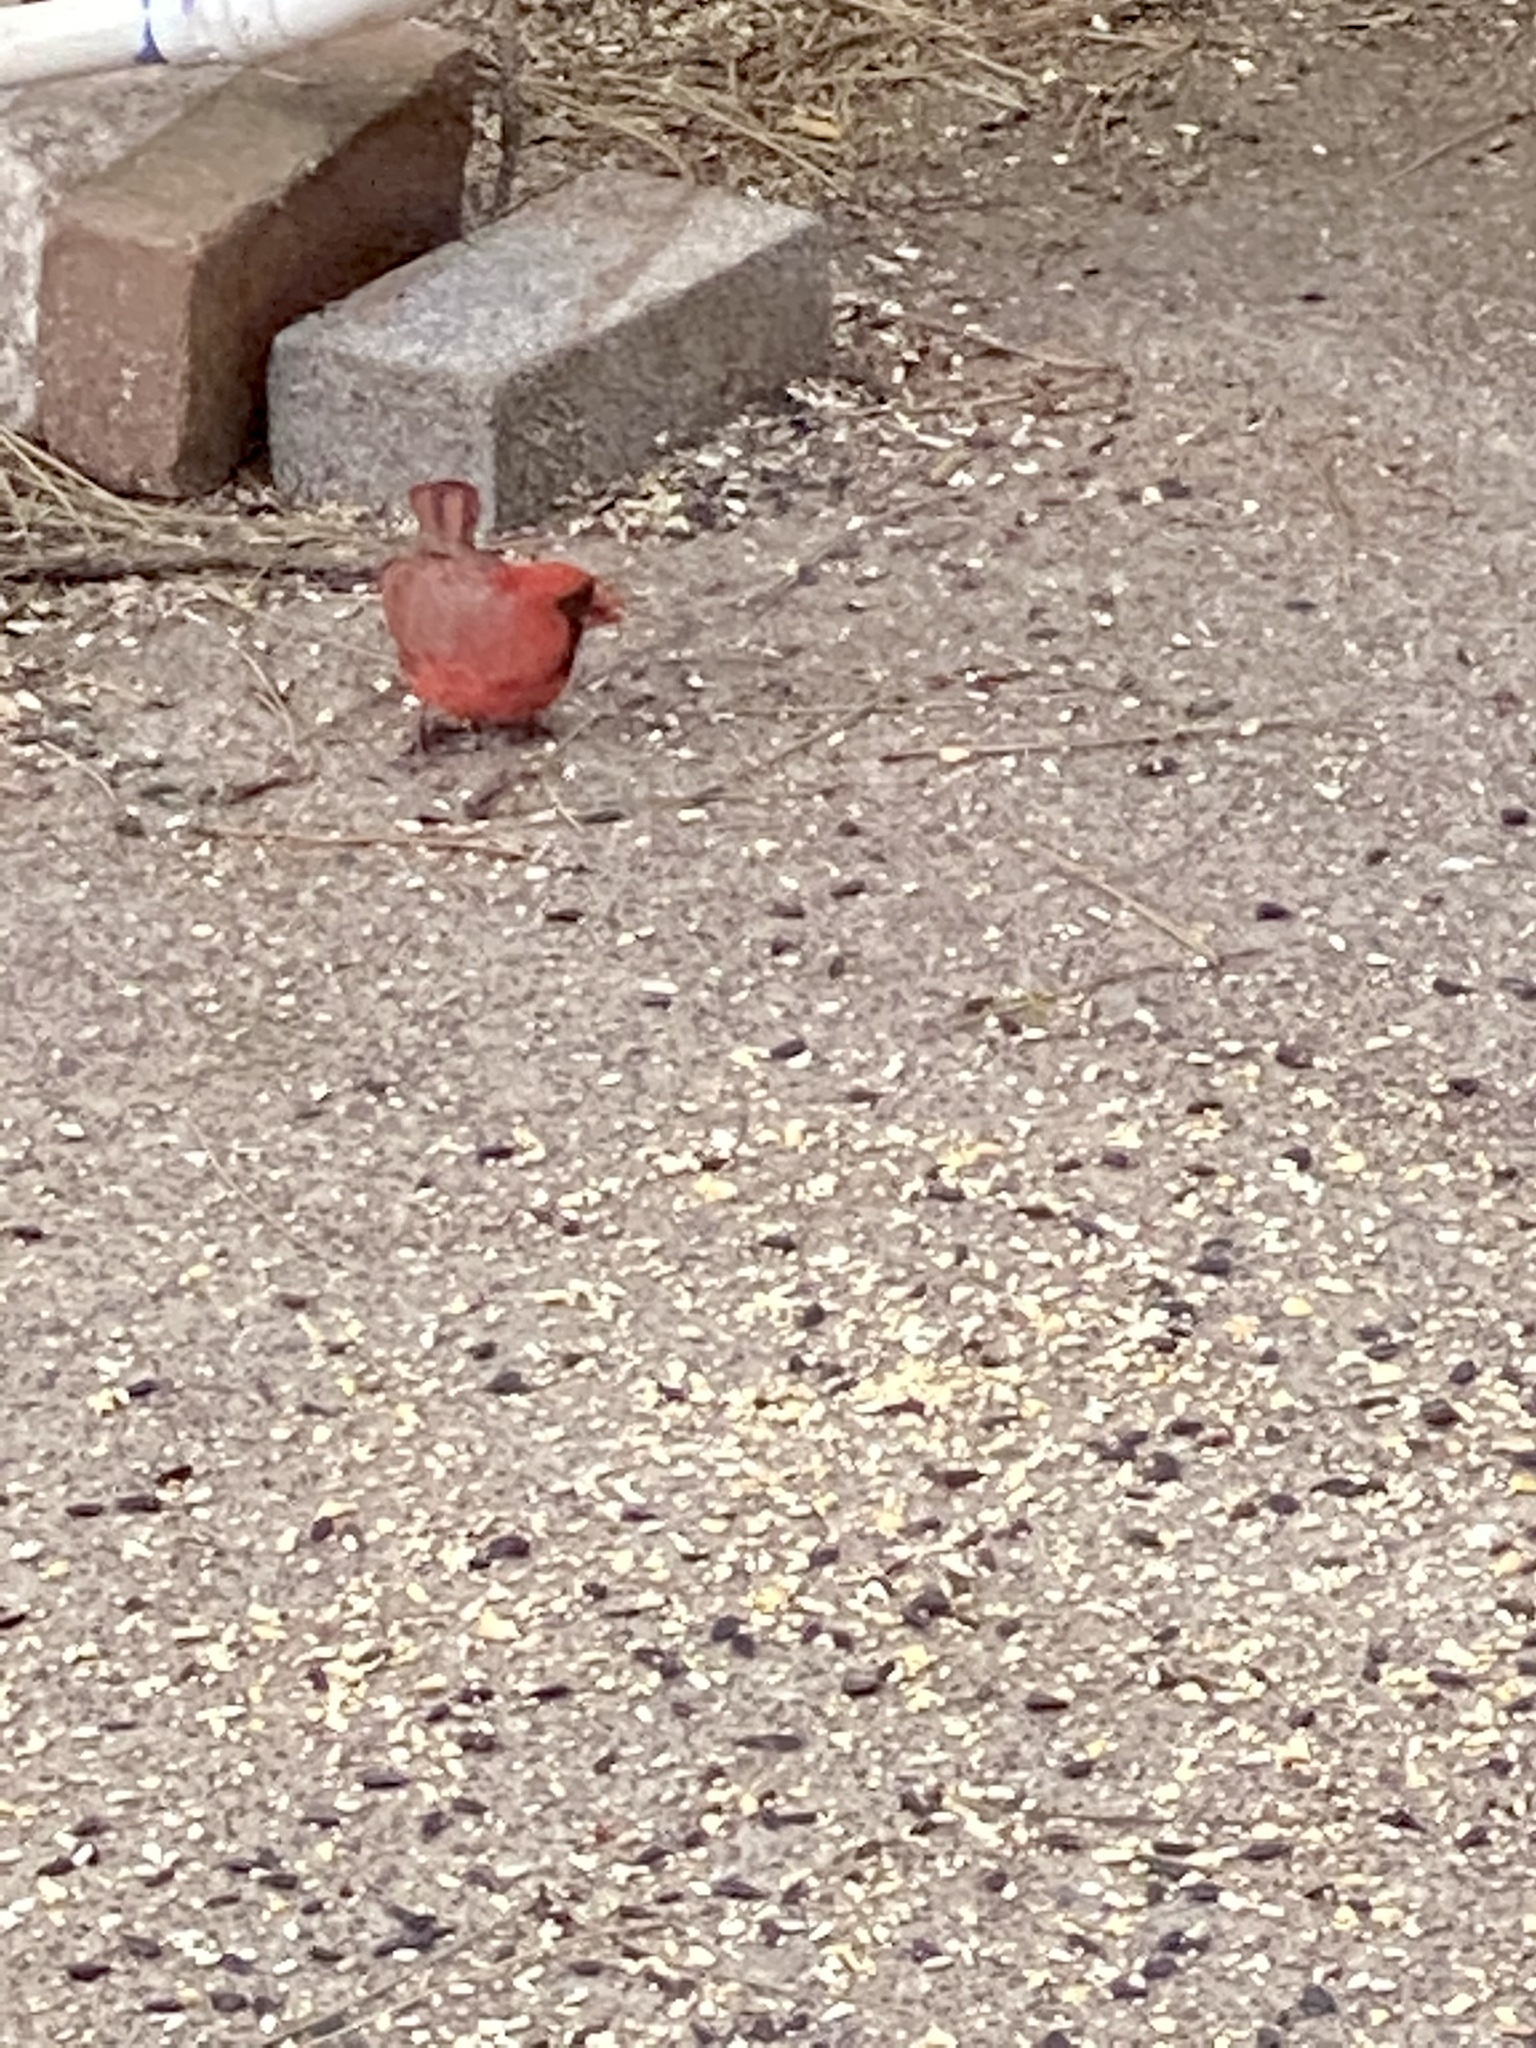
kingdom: Animalia
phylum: Chordata
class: Aves
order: Passeriformes
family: Cardinalidae
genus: Cardinalis
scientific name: Cardinalis cardinalis
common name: Northern cardinal
